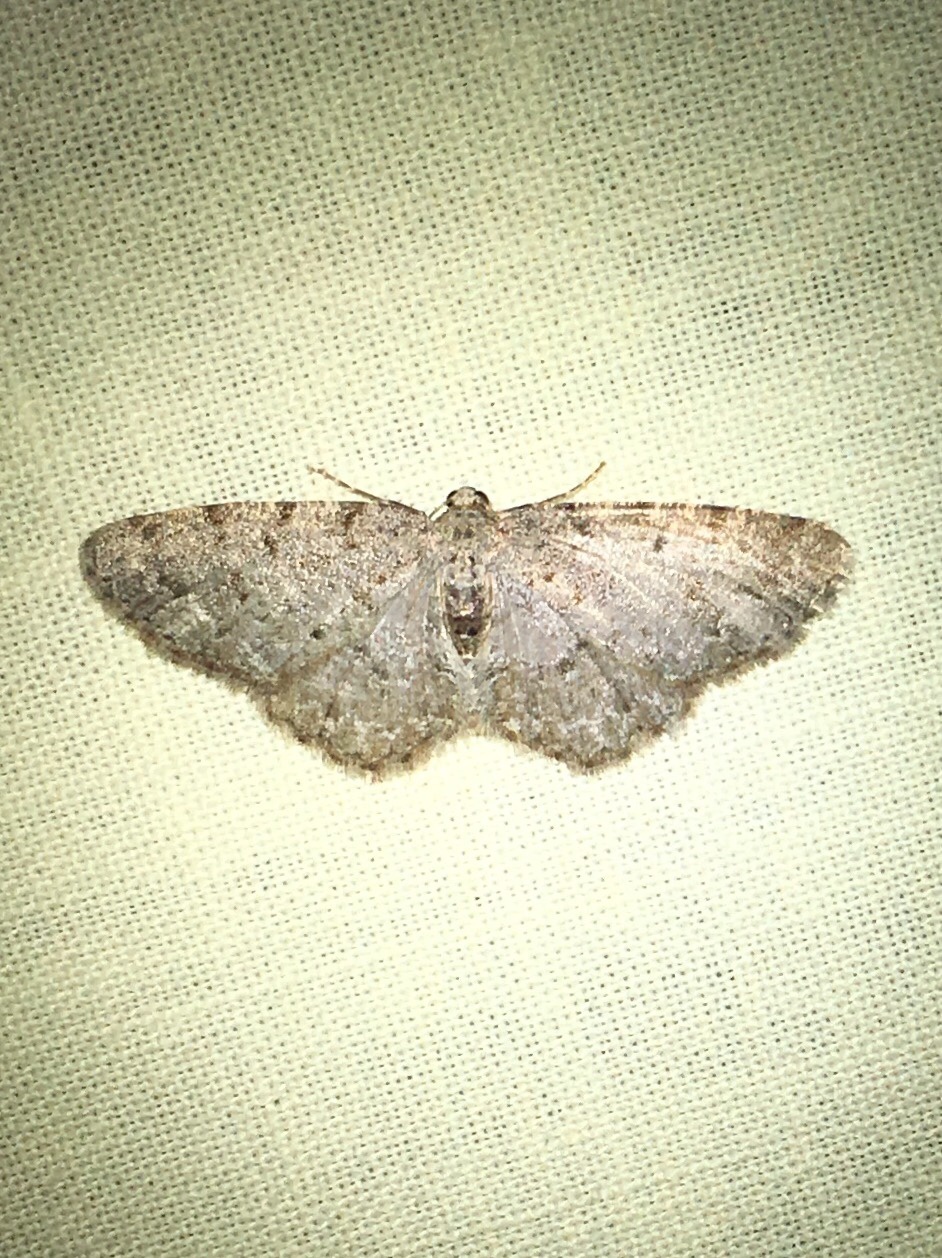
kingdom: Animalia
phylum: Arthropoda
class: Insecta
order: Lepidoptera
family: Geometridae
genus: Aethalura
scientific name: Aethalura intertexta
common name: Four-barred gray
